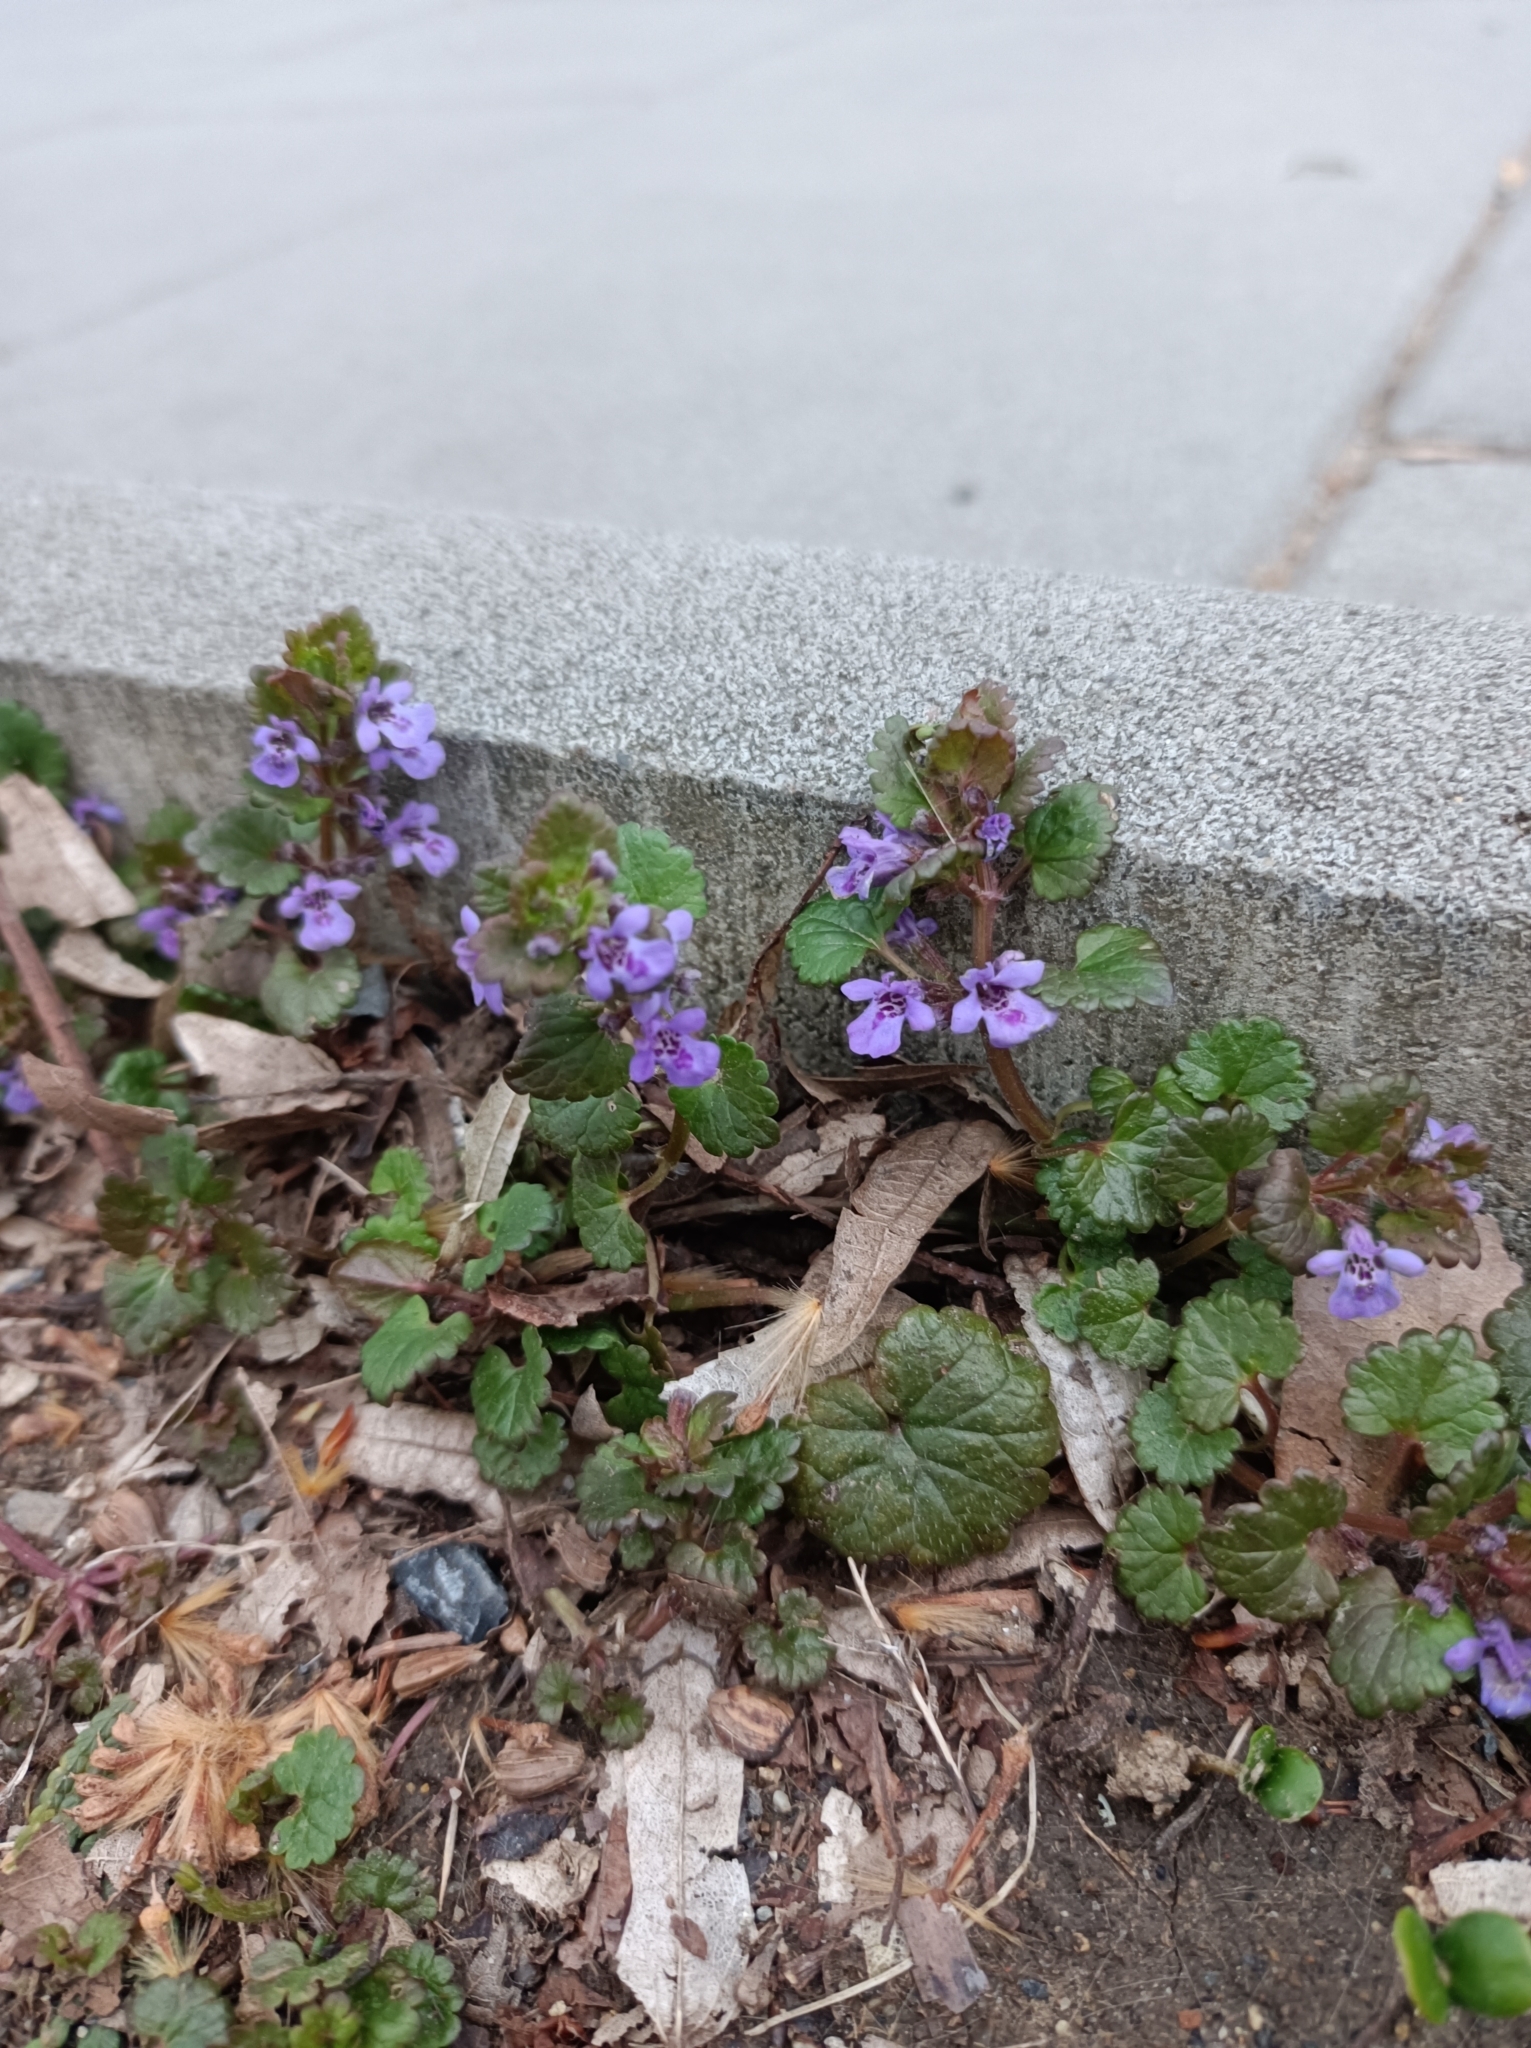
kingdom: Plantae
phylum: Tracheophyta
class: Magnoliopsida
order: Lamiales
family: Lamiaceae
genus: Glechoma
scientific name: Glechoma hederacea
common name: Ground ivy
